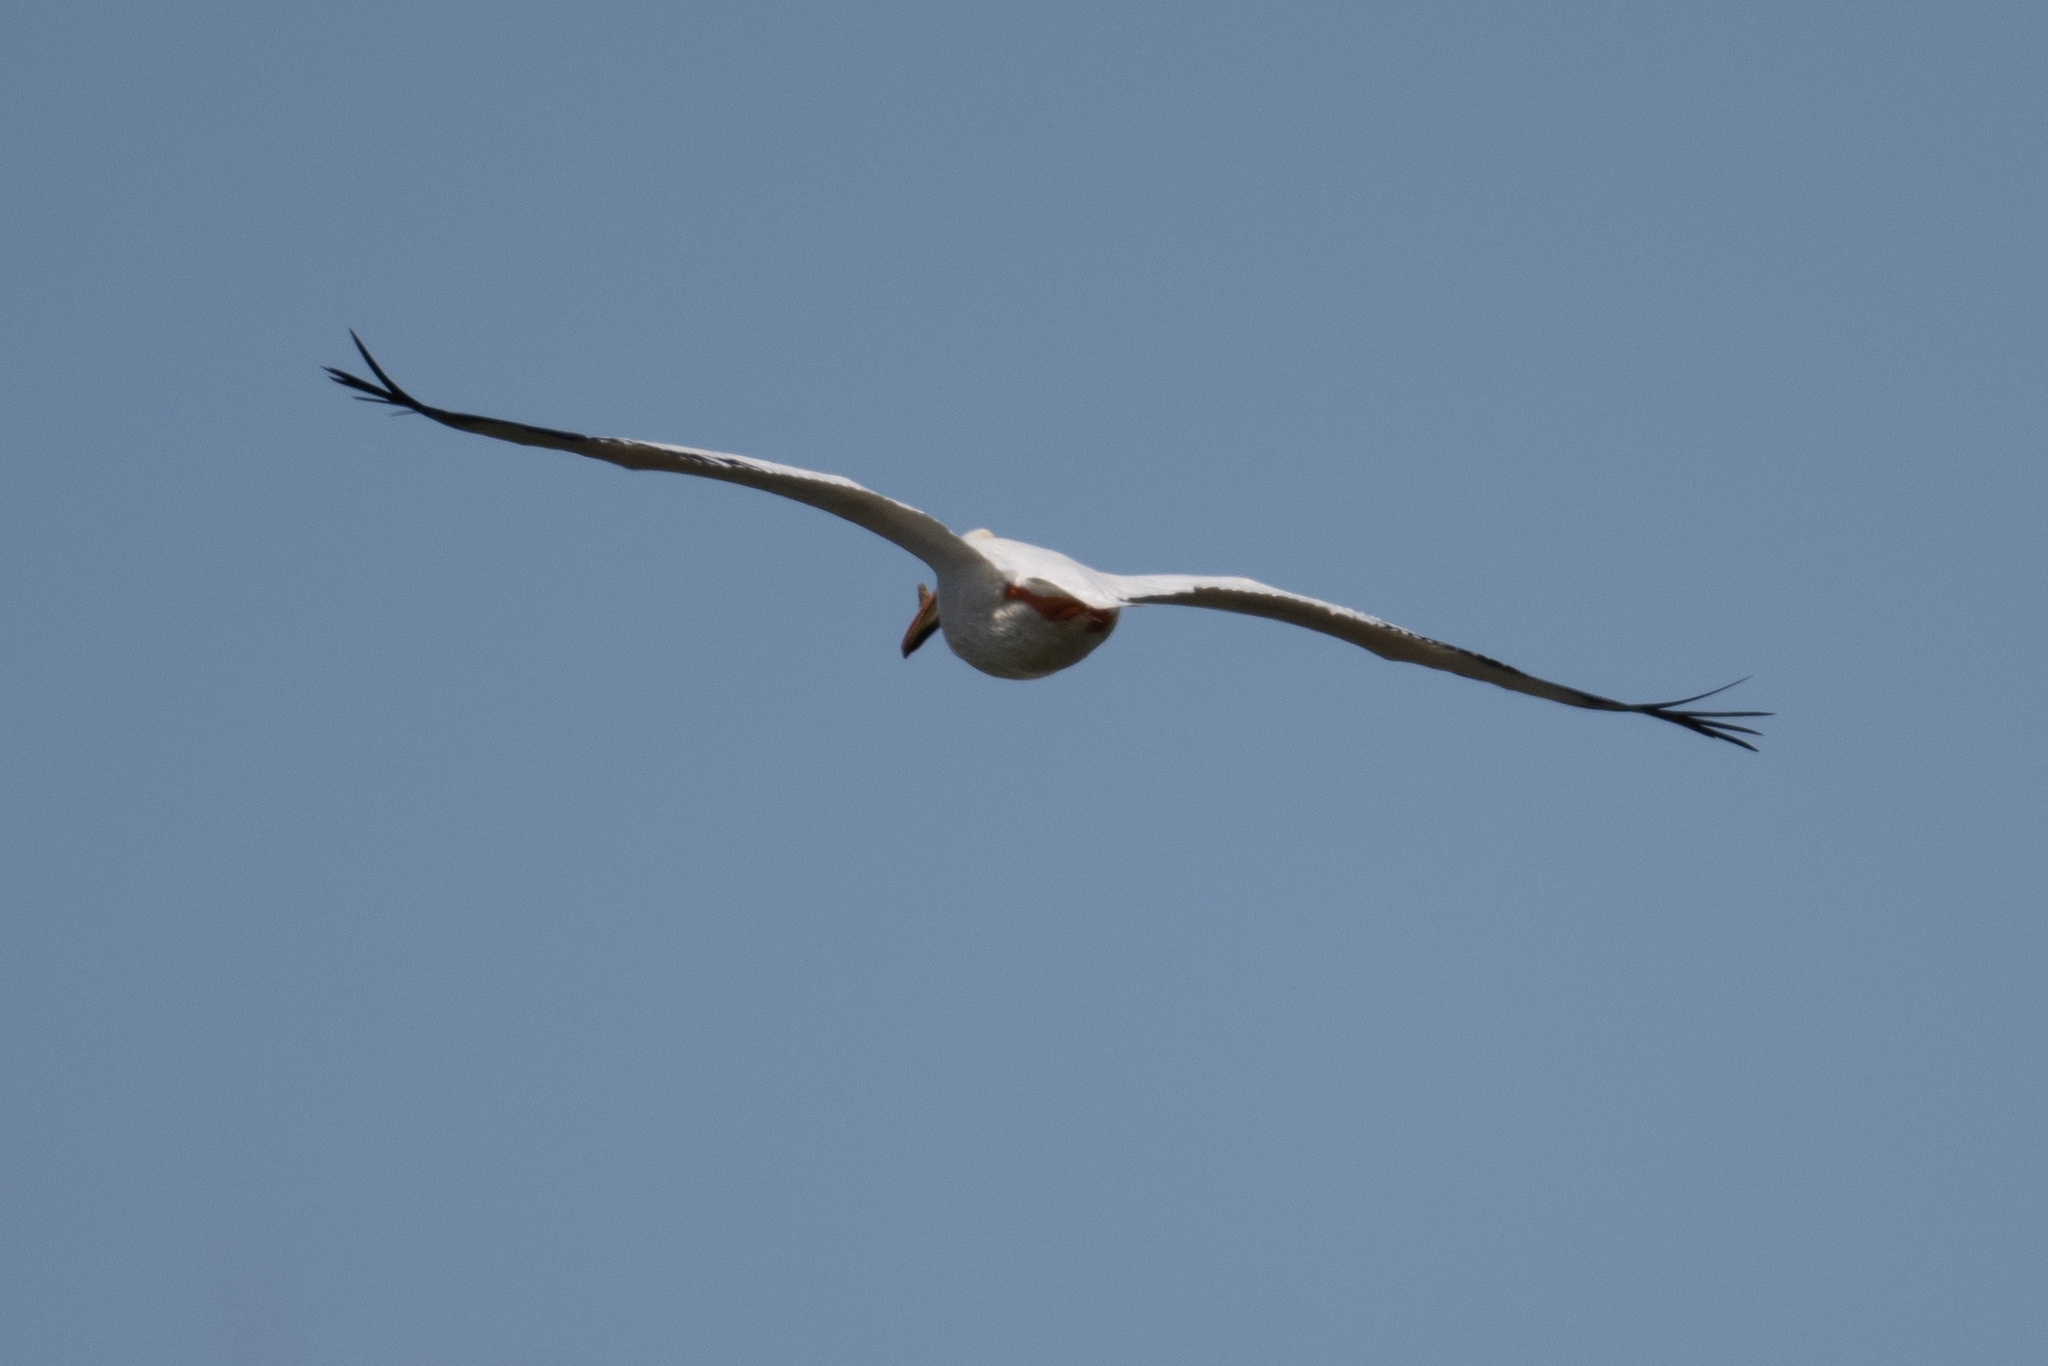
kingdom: Animalia
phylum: Chordata
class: Aves
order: Pelecaniformes
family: Pelecanidae
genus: Pelecanus
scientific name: Pelecanus erythrorhynchos
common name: American white pelican
